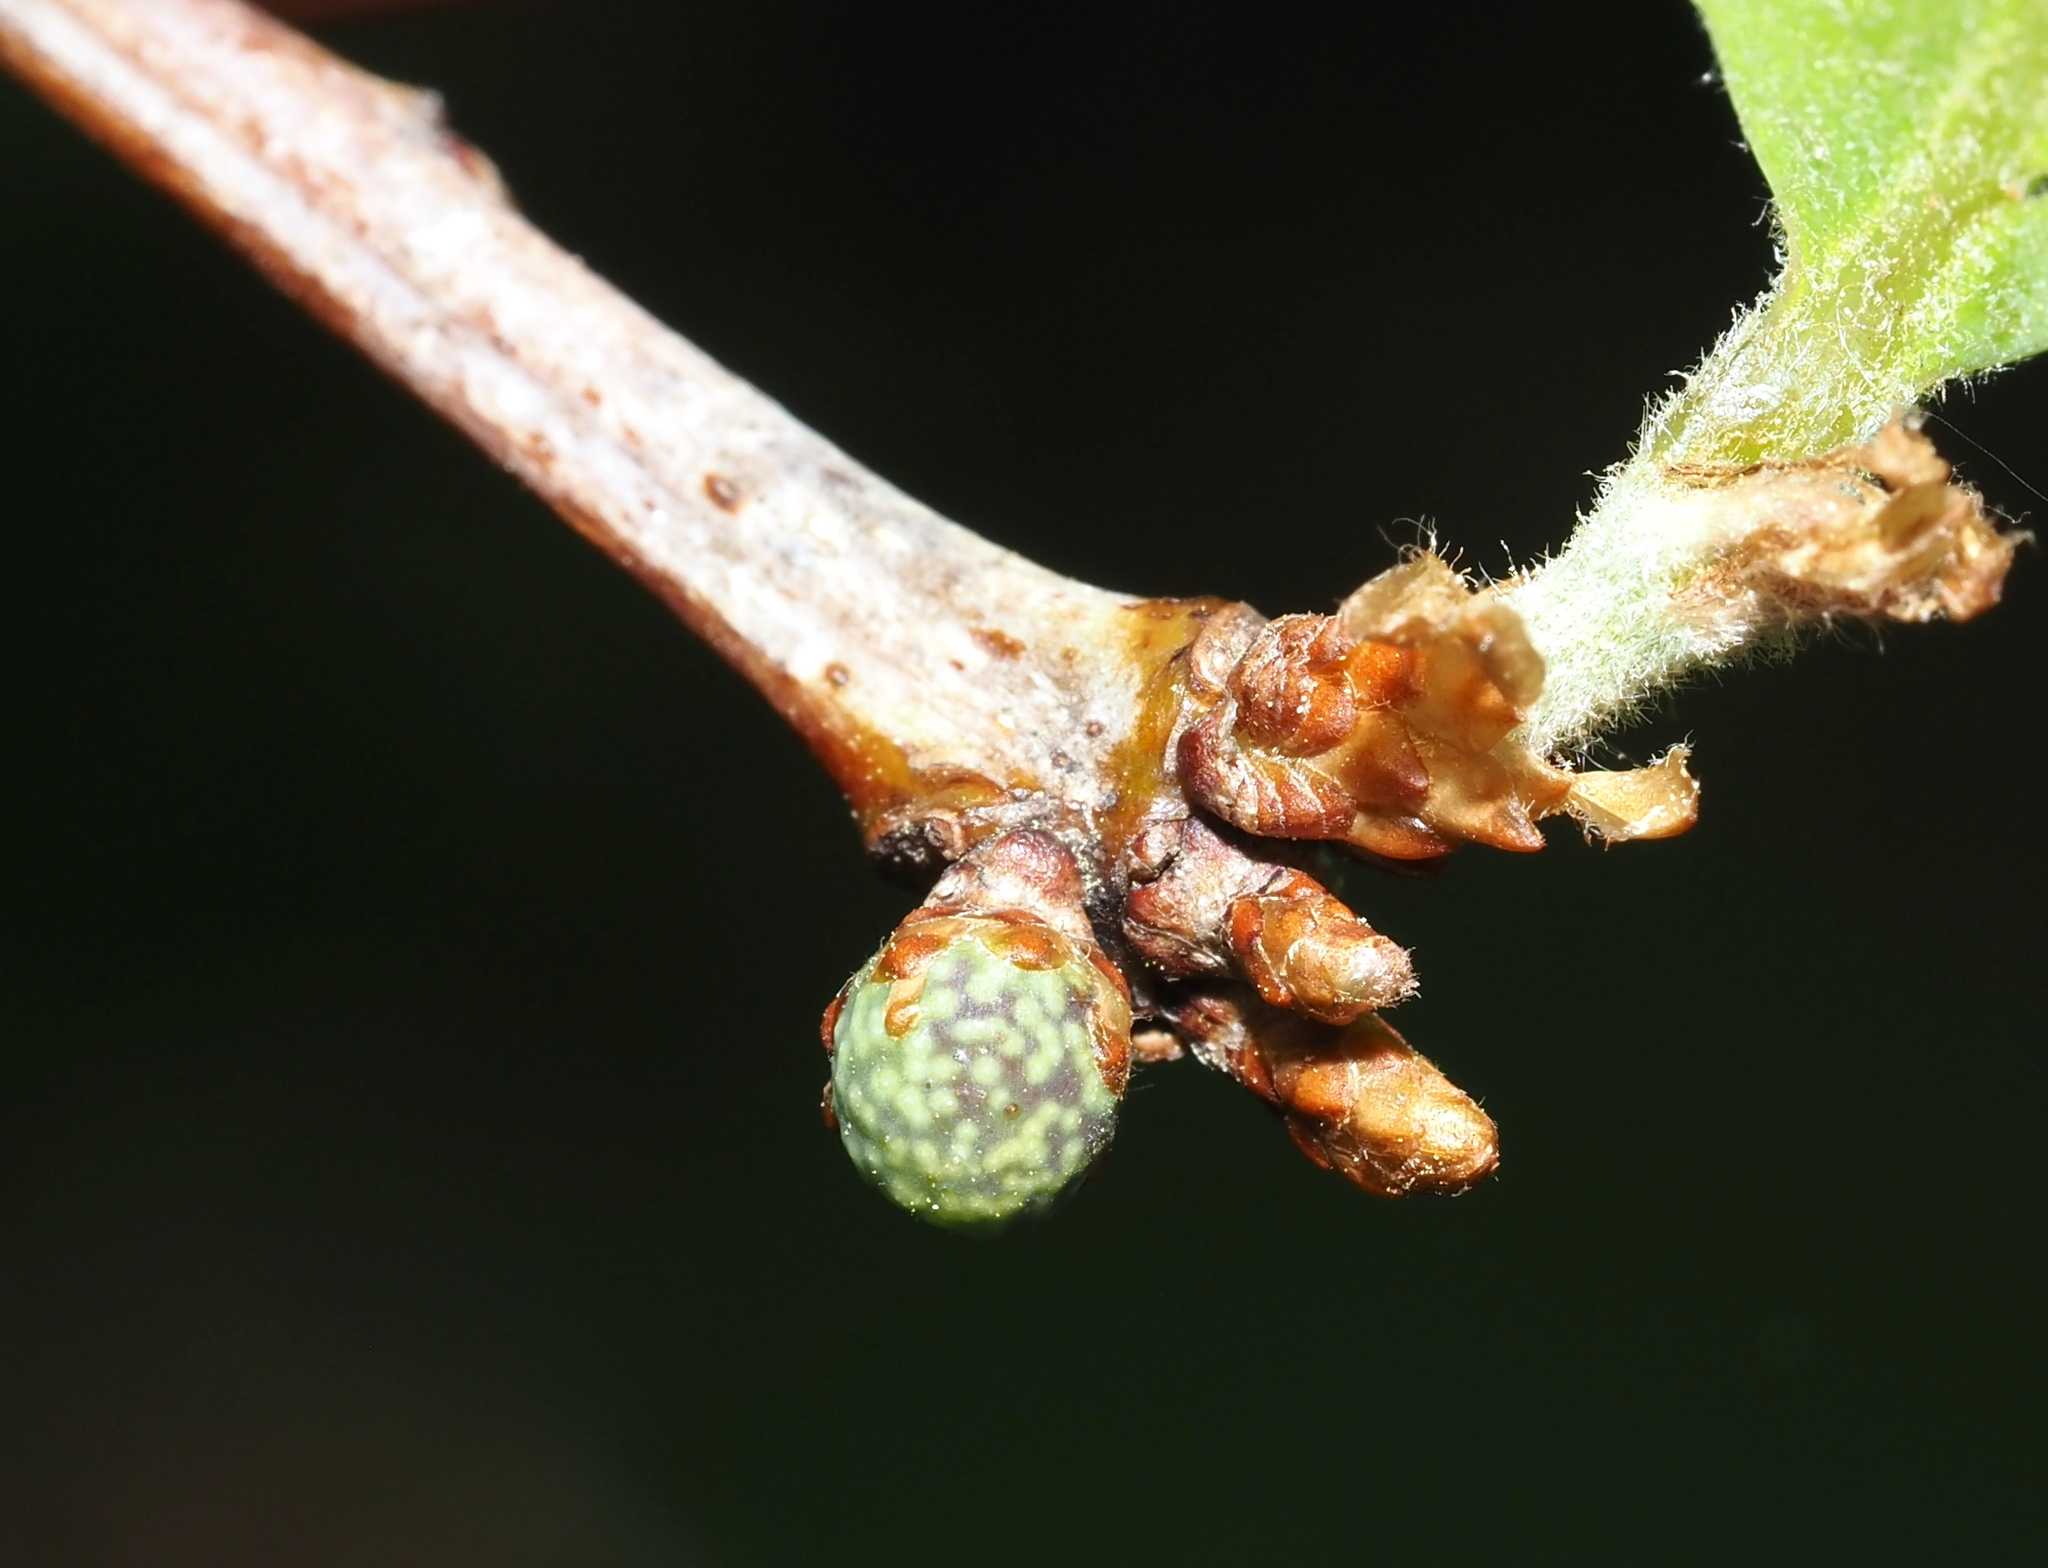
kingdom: Animalia
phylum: Arthropoda
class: Insecta
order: Hymenoptera
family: Cynipidae
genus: Andricus
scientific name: Andricus
